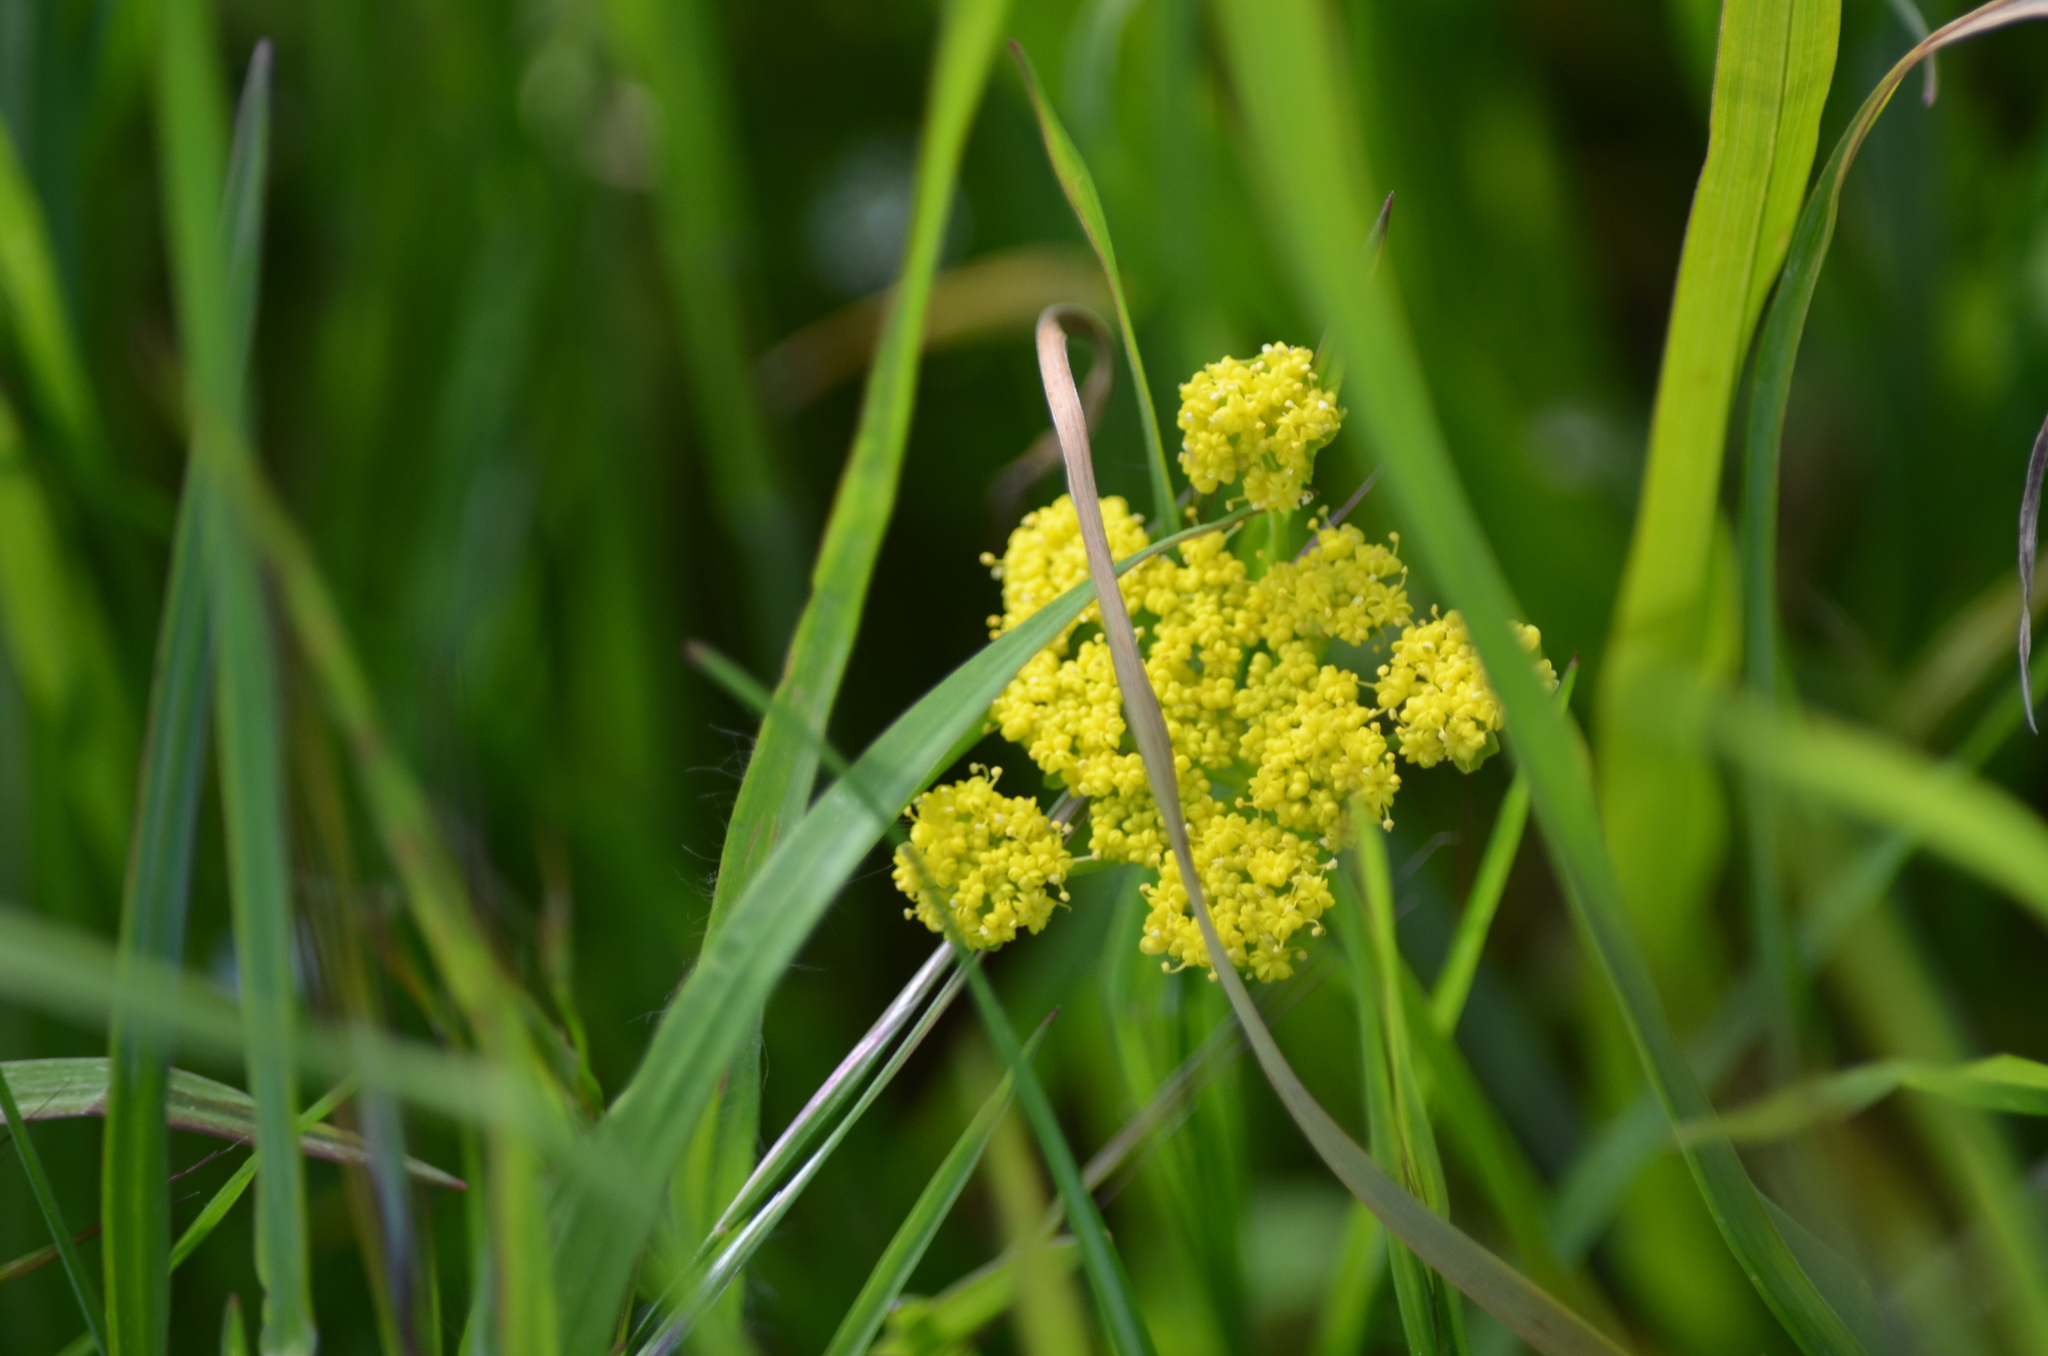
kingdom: Plantae
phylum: Tracheophyta
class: Magnoliopsida
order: Apiales
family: Apiaceae
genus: Lomatium
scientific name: Lomatium utriculatum
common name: Fine-leaf desert-parsley
